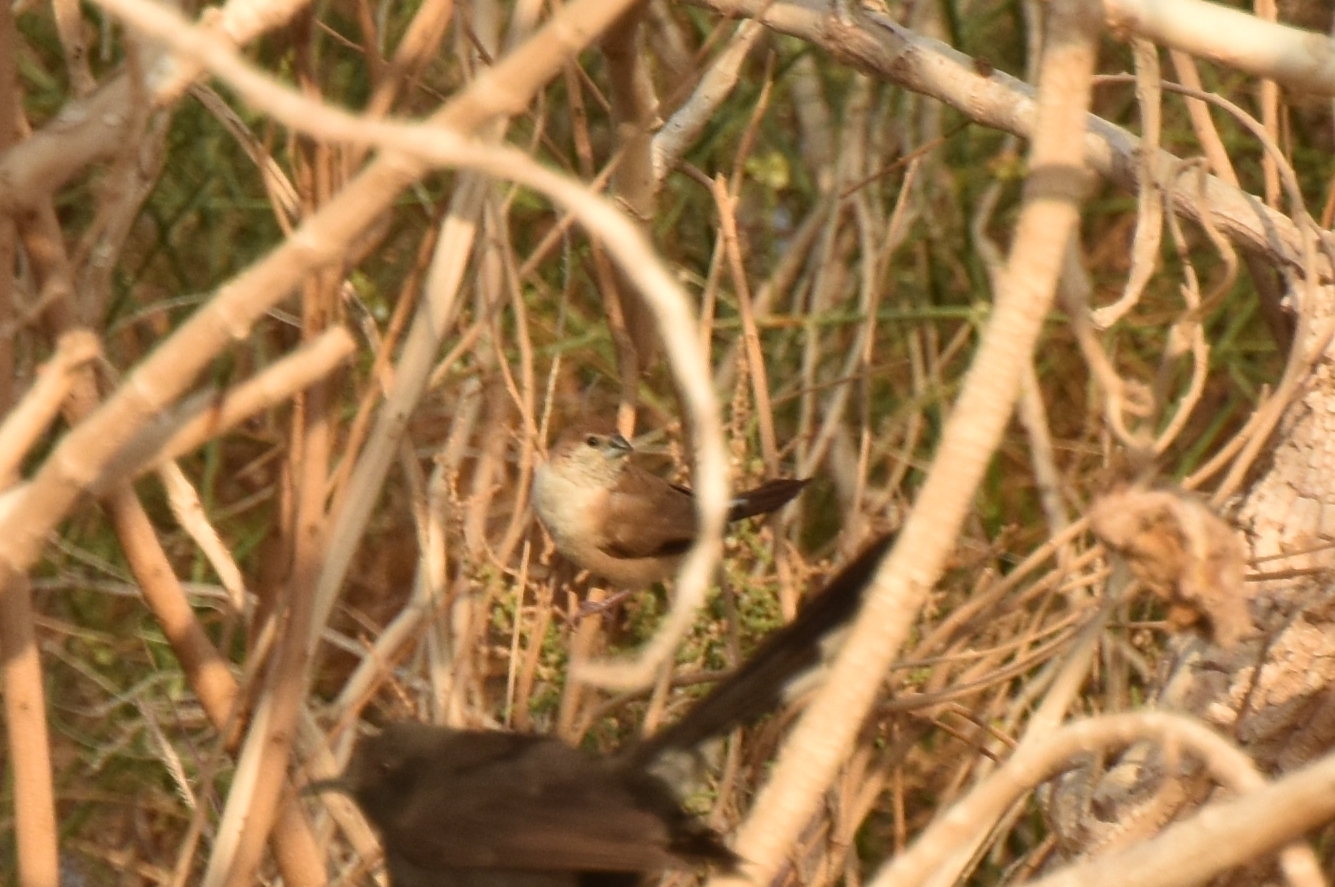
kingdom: Animalia
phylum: Chordata
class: Aves
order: Passeriformes
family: Estrildidae
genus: Euodice
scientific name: Euodice malabarica
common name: Indian silverbill
